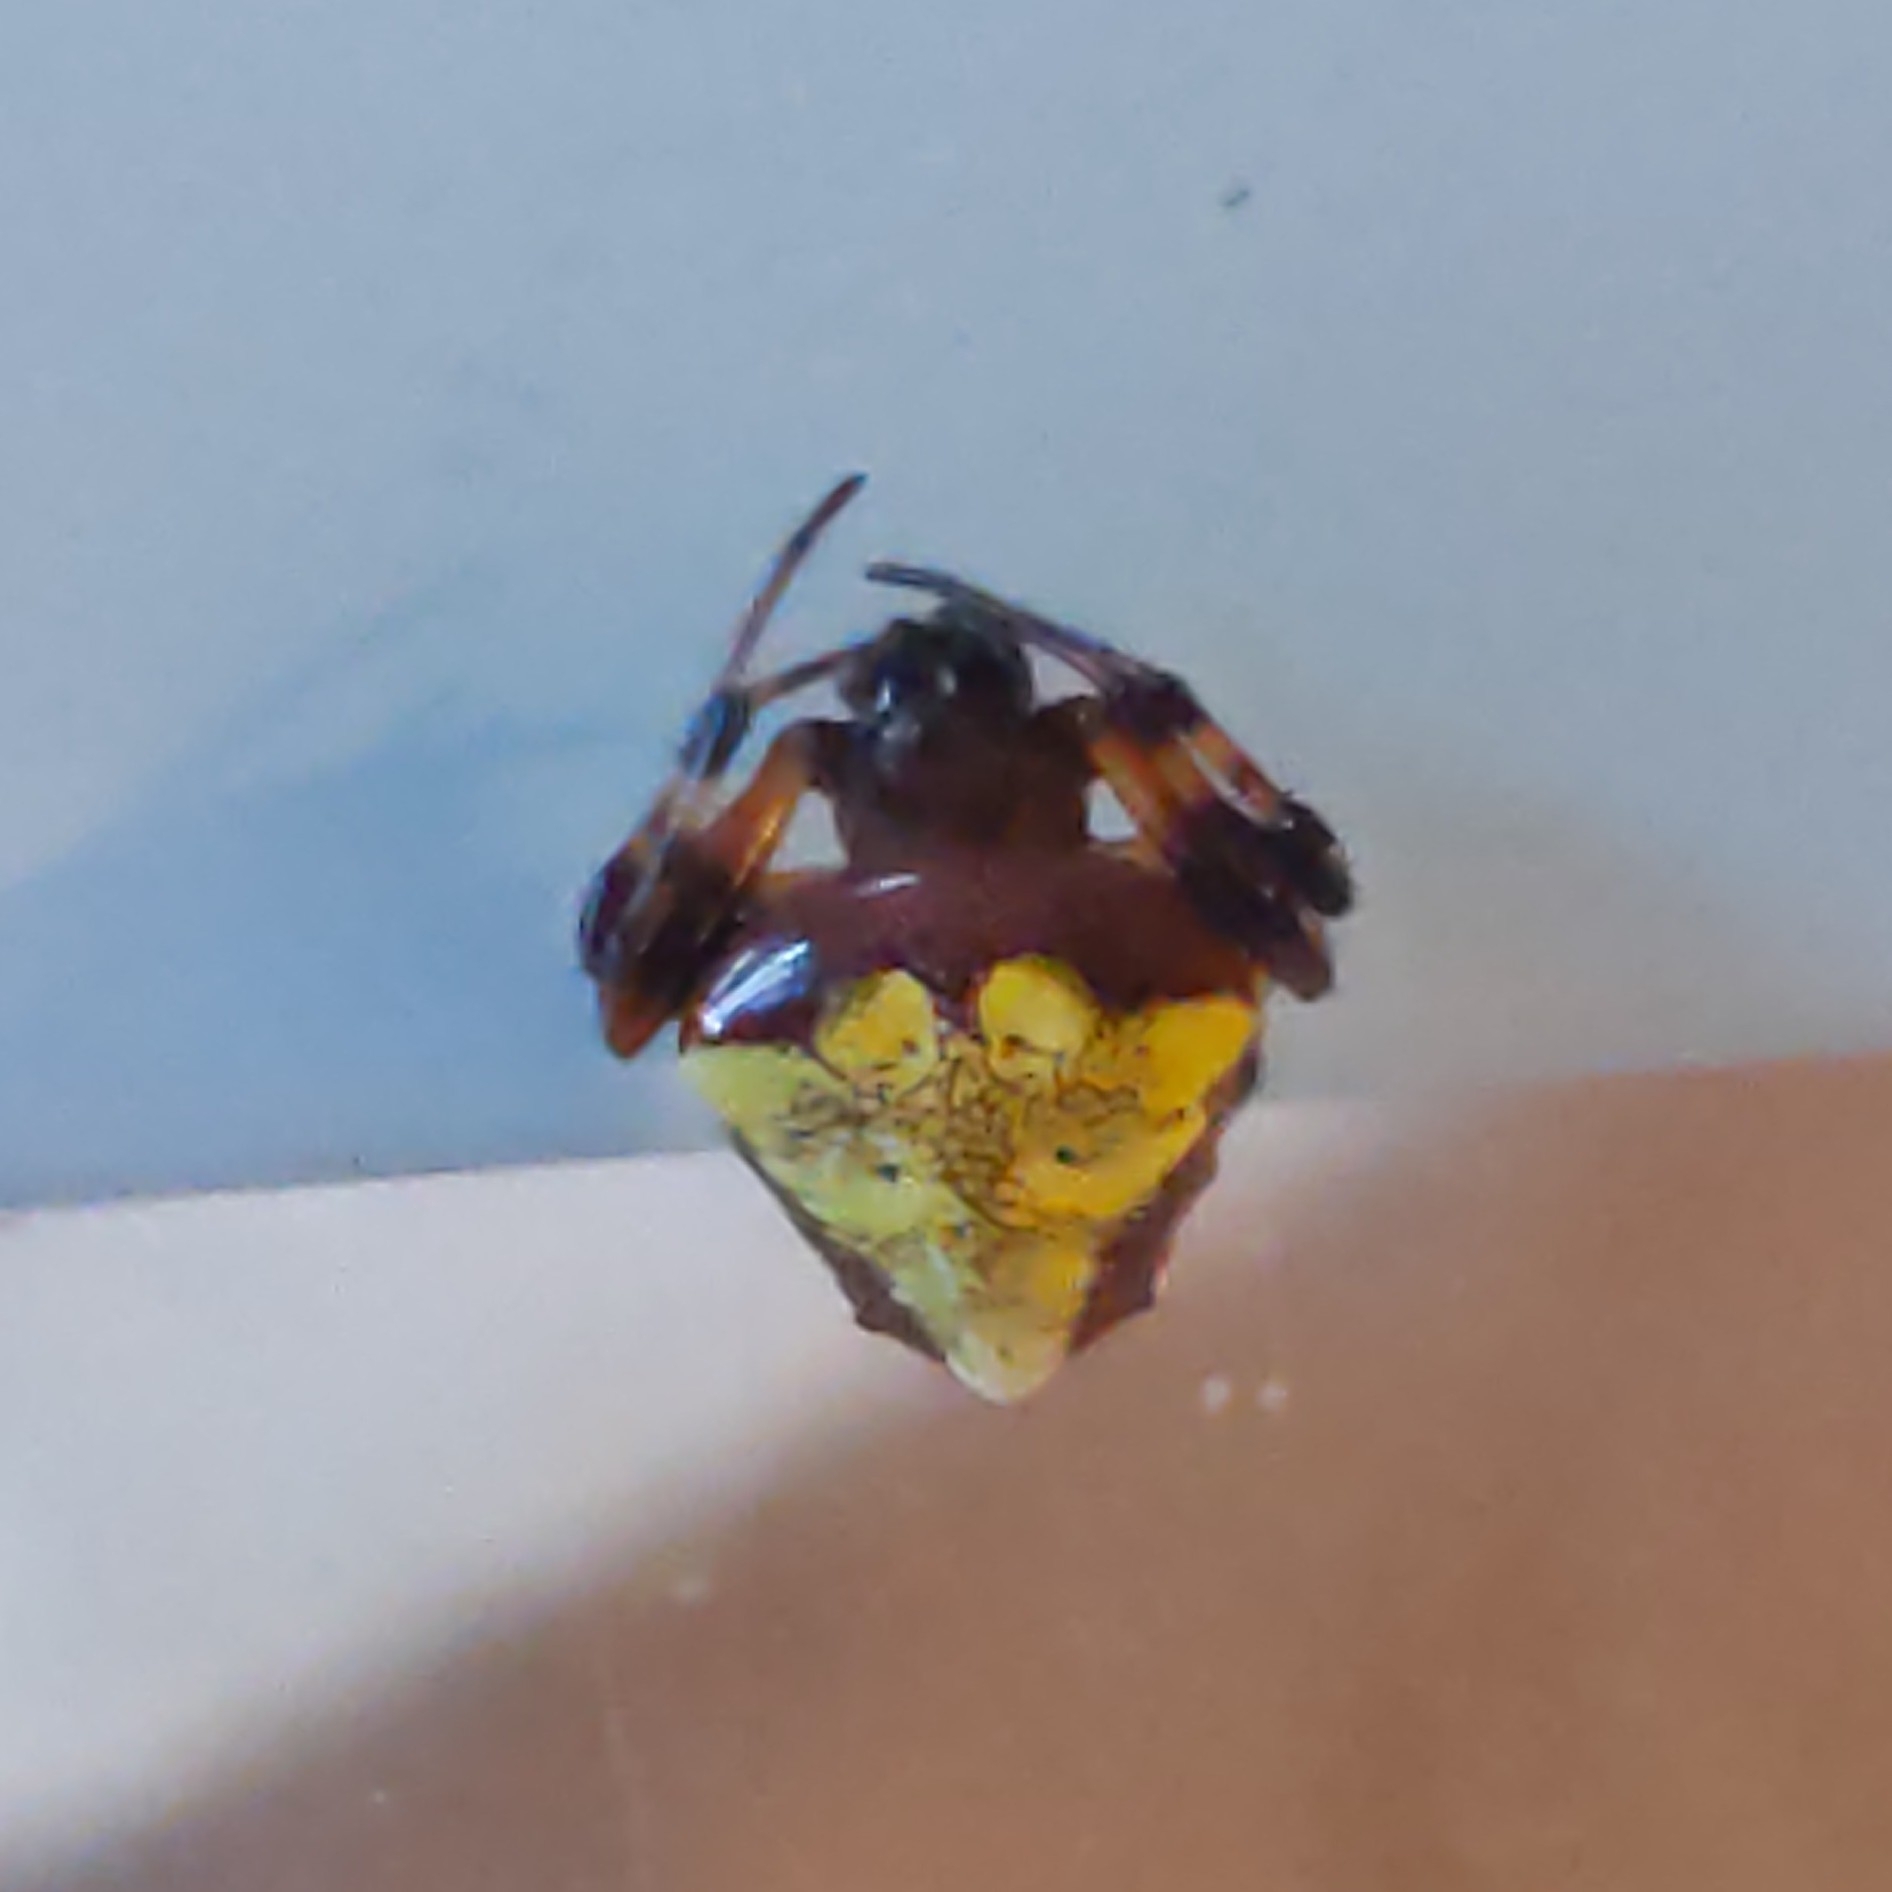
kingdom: Animalia
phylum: Arthropoda
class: Arachnida
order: Araneae
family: Araneidae
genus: Verrucosa
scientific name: Verrucosa arenata
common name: Orb weavers
